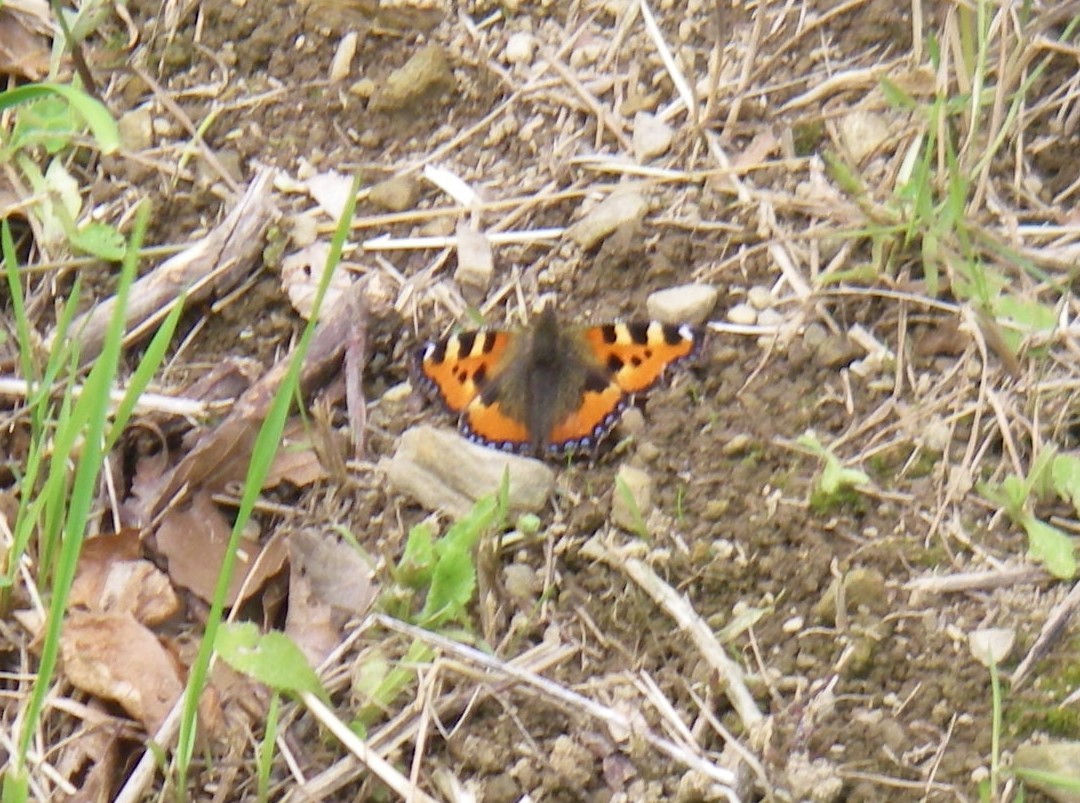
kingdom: Animalia
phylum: Arthropoda
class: Insecta
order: Lepidoptera
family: Nymphalidae
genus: Aglais
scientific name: Aglais urticae
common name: Small tortoiseshell
